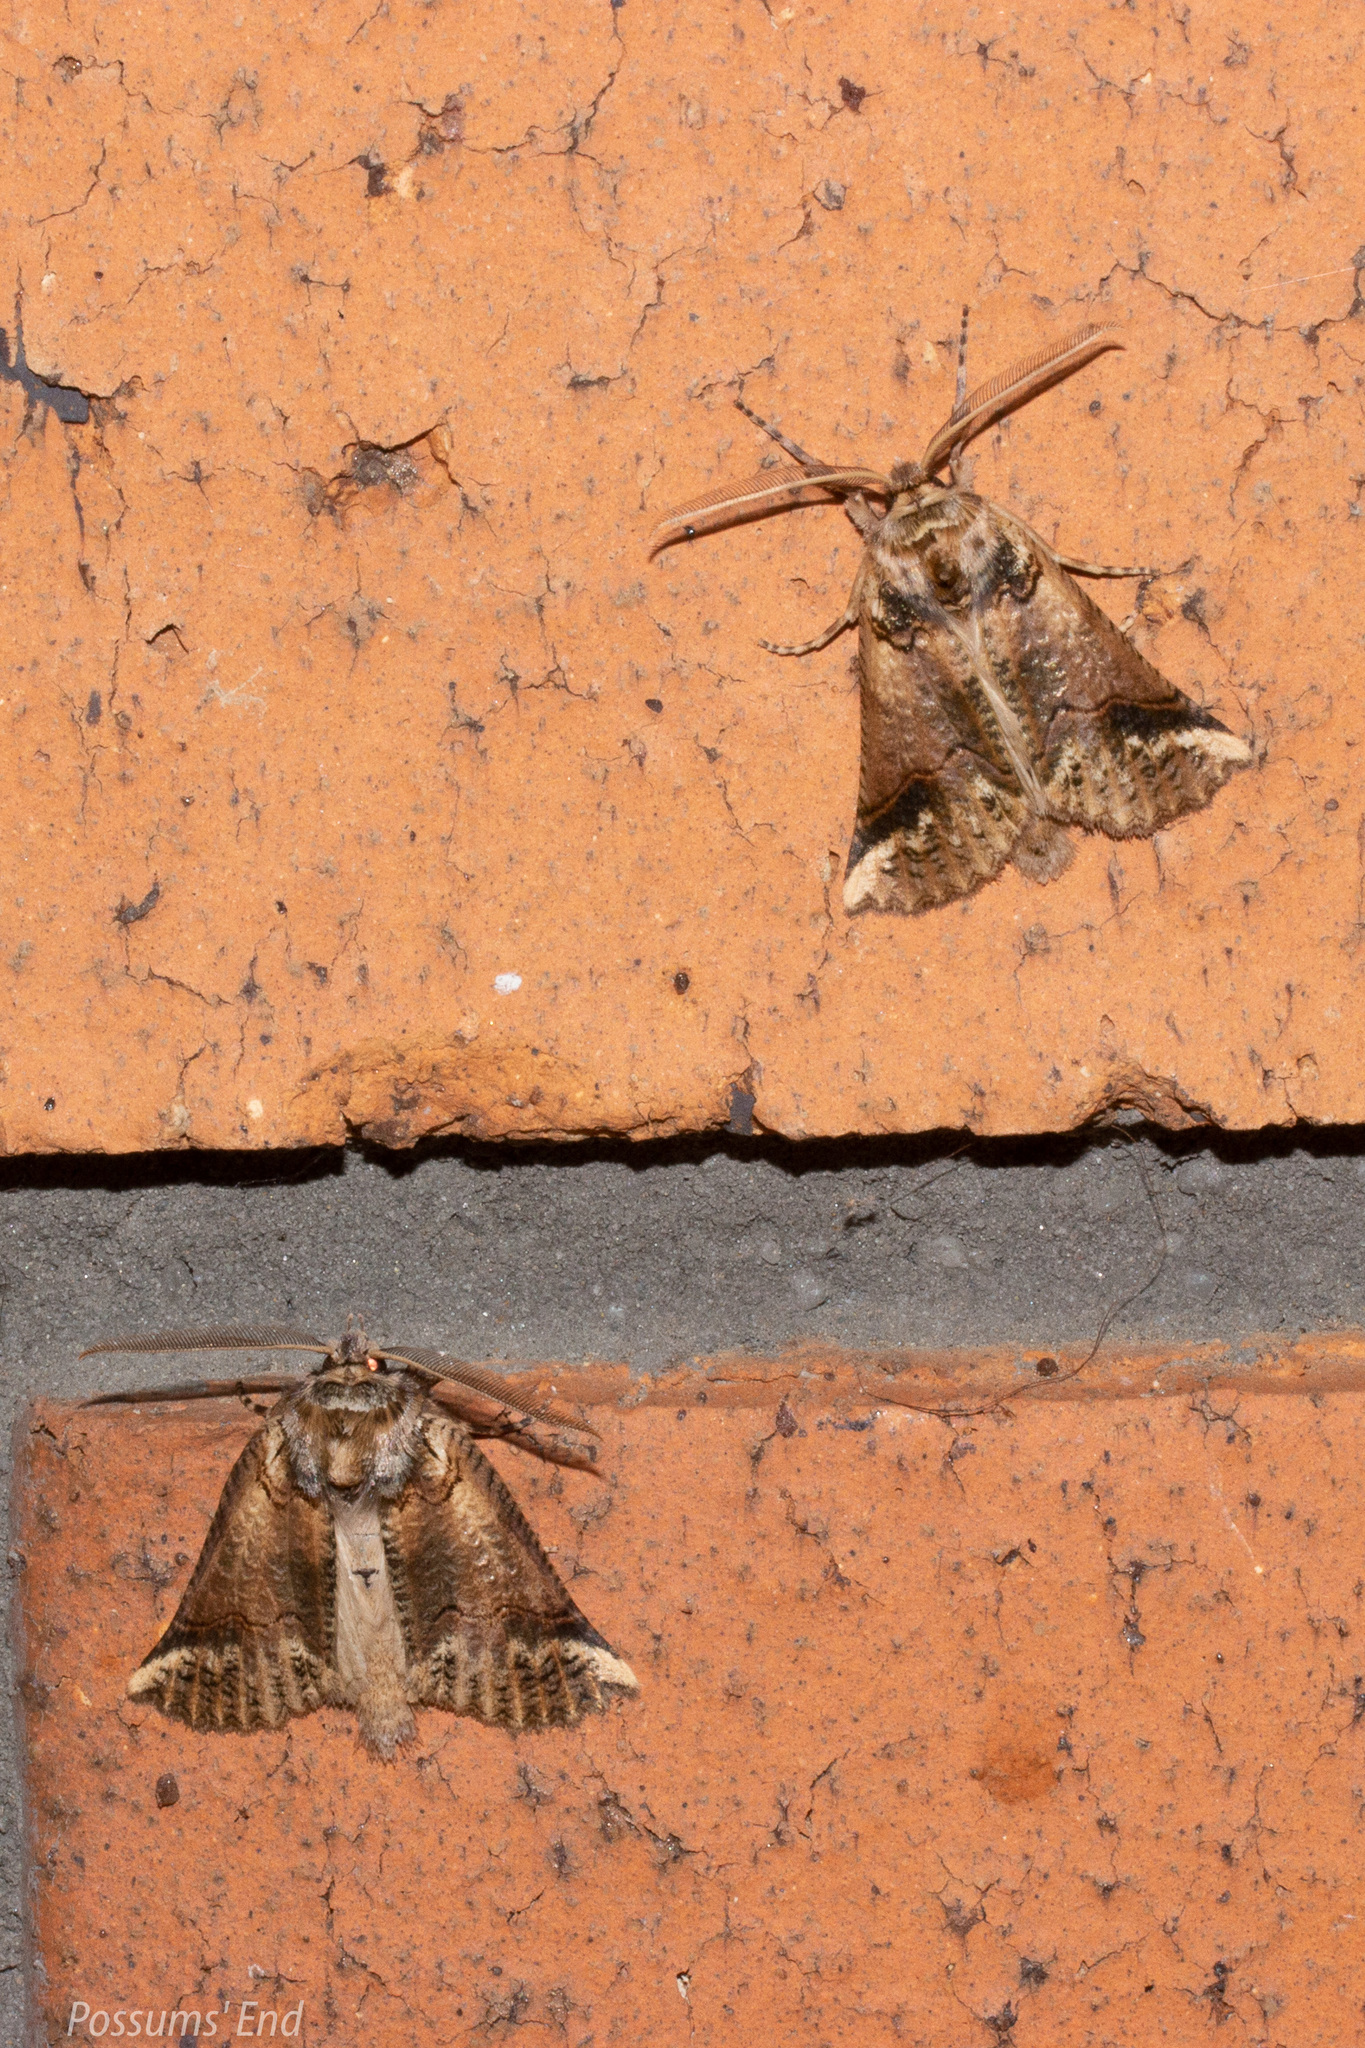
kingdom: Animalia
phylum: Arthropoda
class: Insecta
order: Lepidoptera
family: Geometridae
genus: Declana
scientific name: Declana
